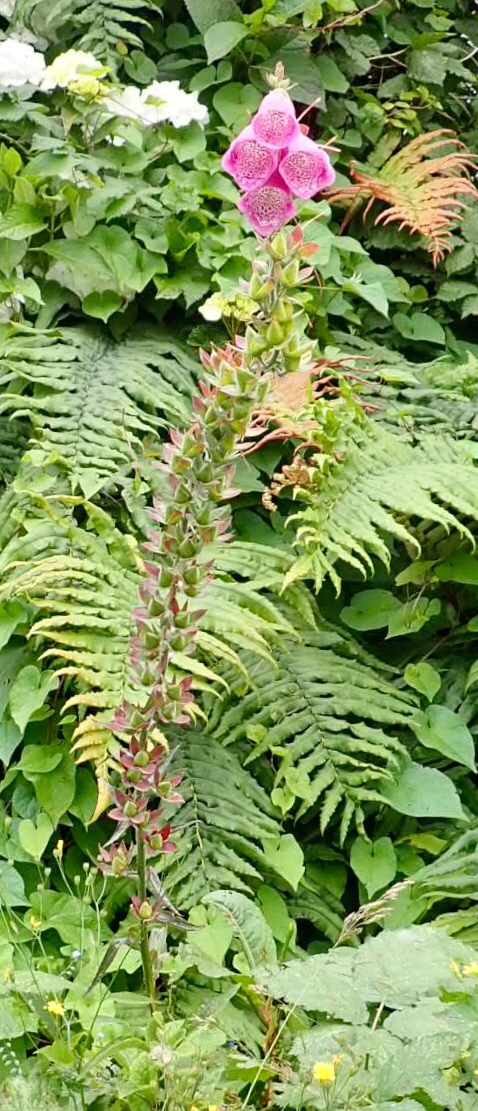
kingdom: Plantae
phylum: Tracheophyta
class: Magnoliopsida
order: Lamiales
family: Plantaginaceae
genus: Digitalis
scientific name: Digitalis purpurea
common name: Foxglove
